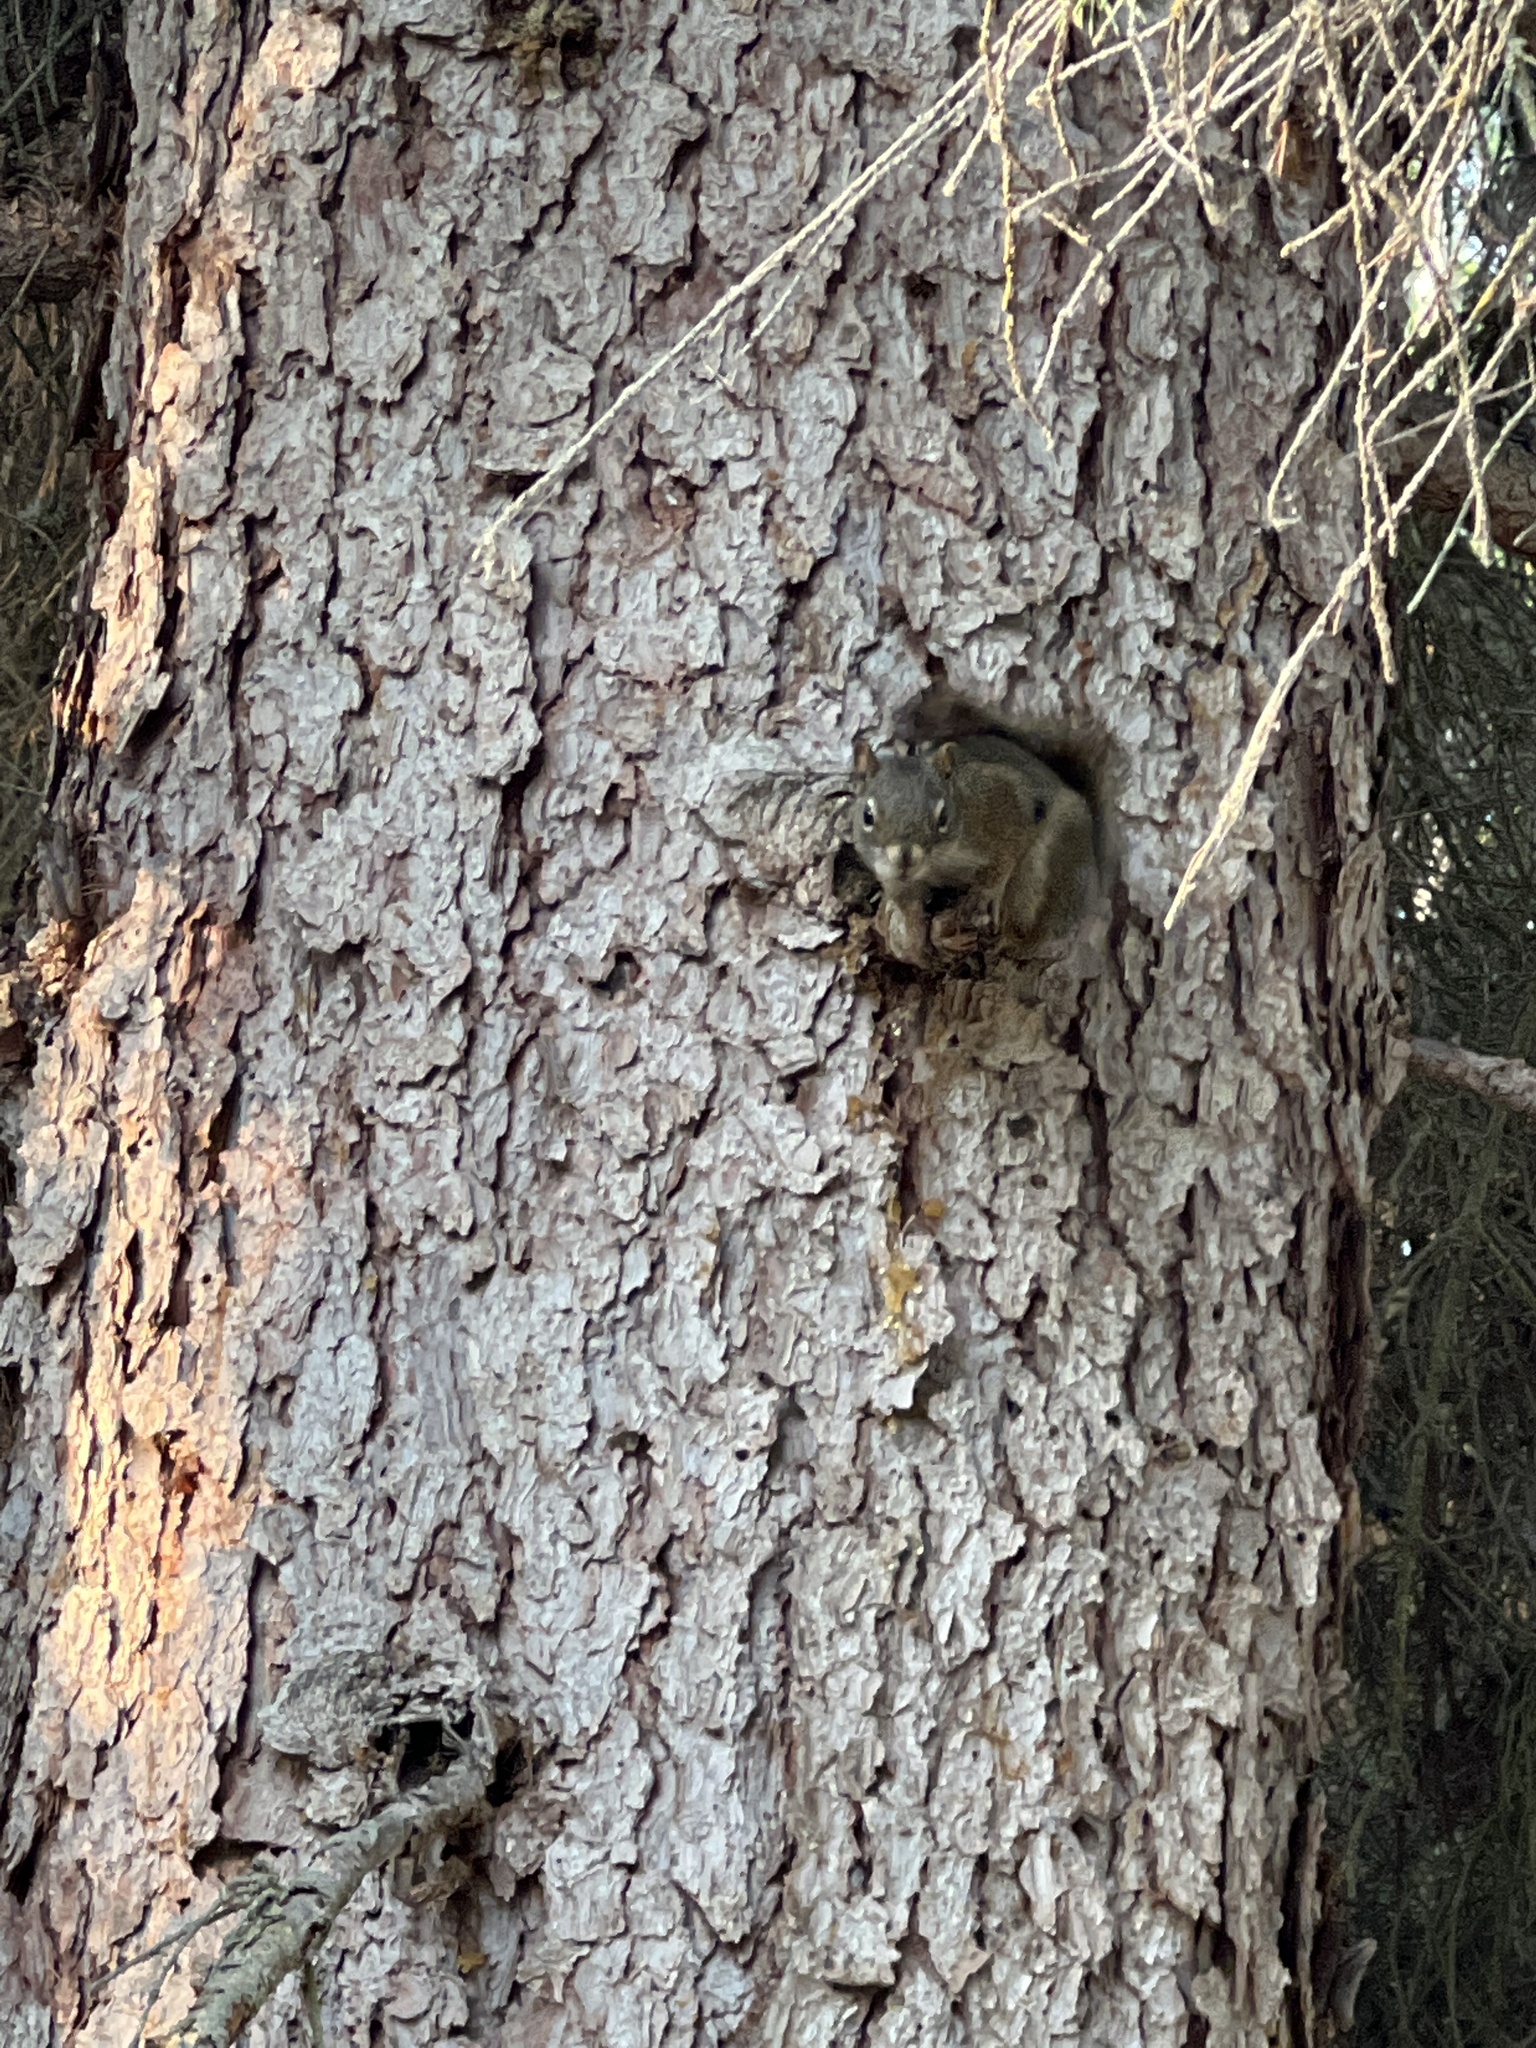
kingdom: Animalia
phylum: Chordata
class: Mammalia
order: Rodentia
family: Sciuridae
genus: Tamiasciurus
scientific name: Tamiasciurus hudsonicus
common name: Red squirrel
